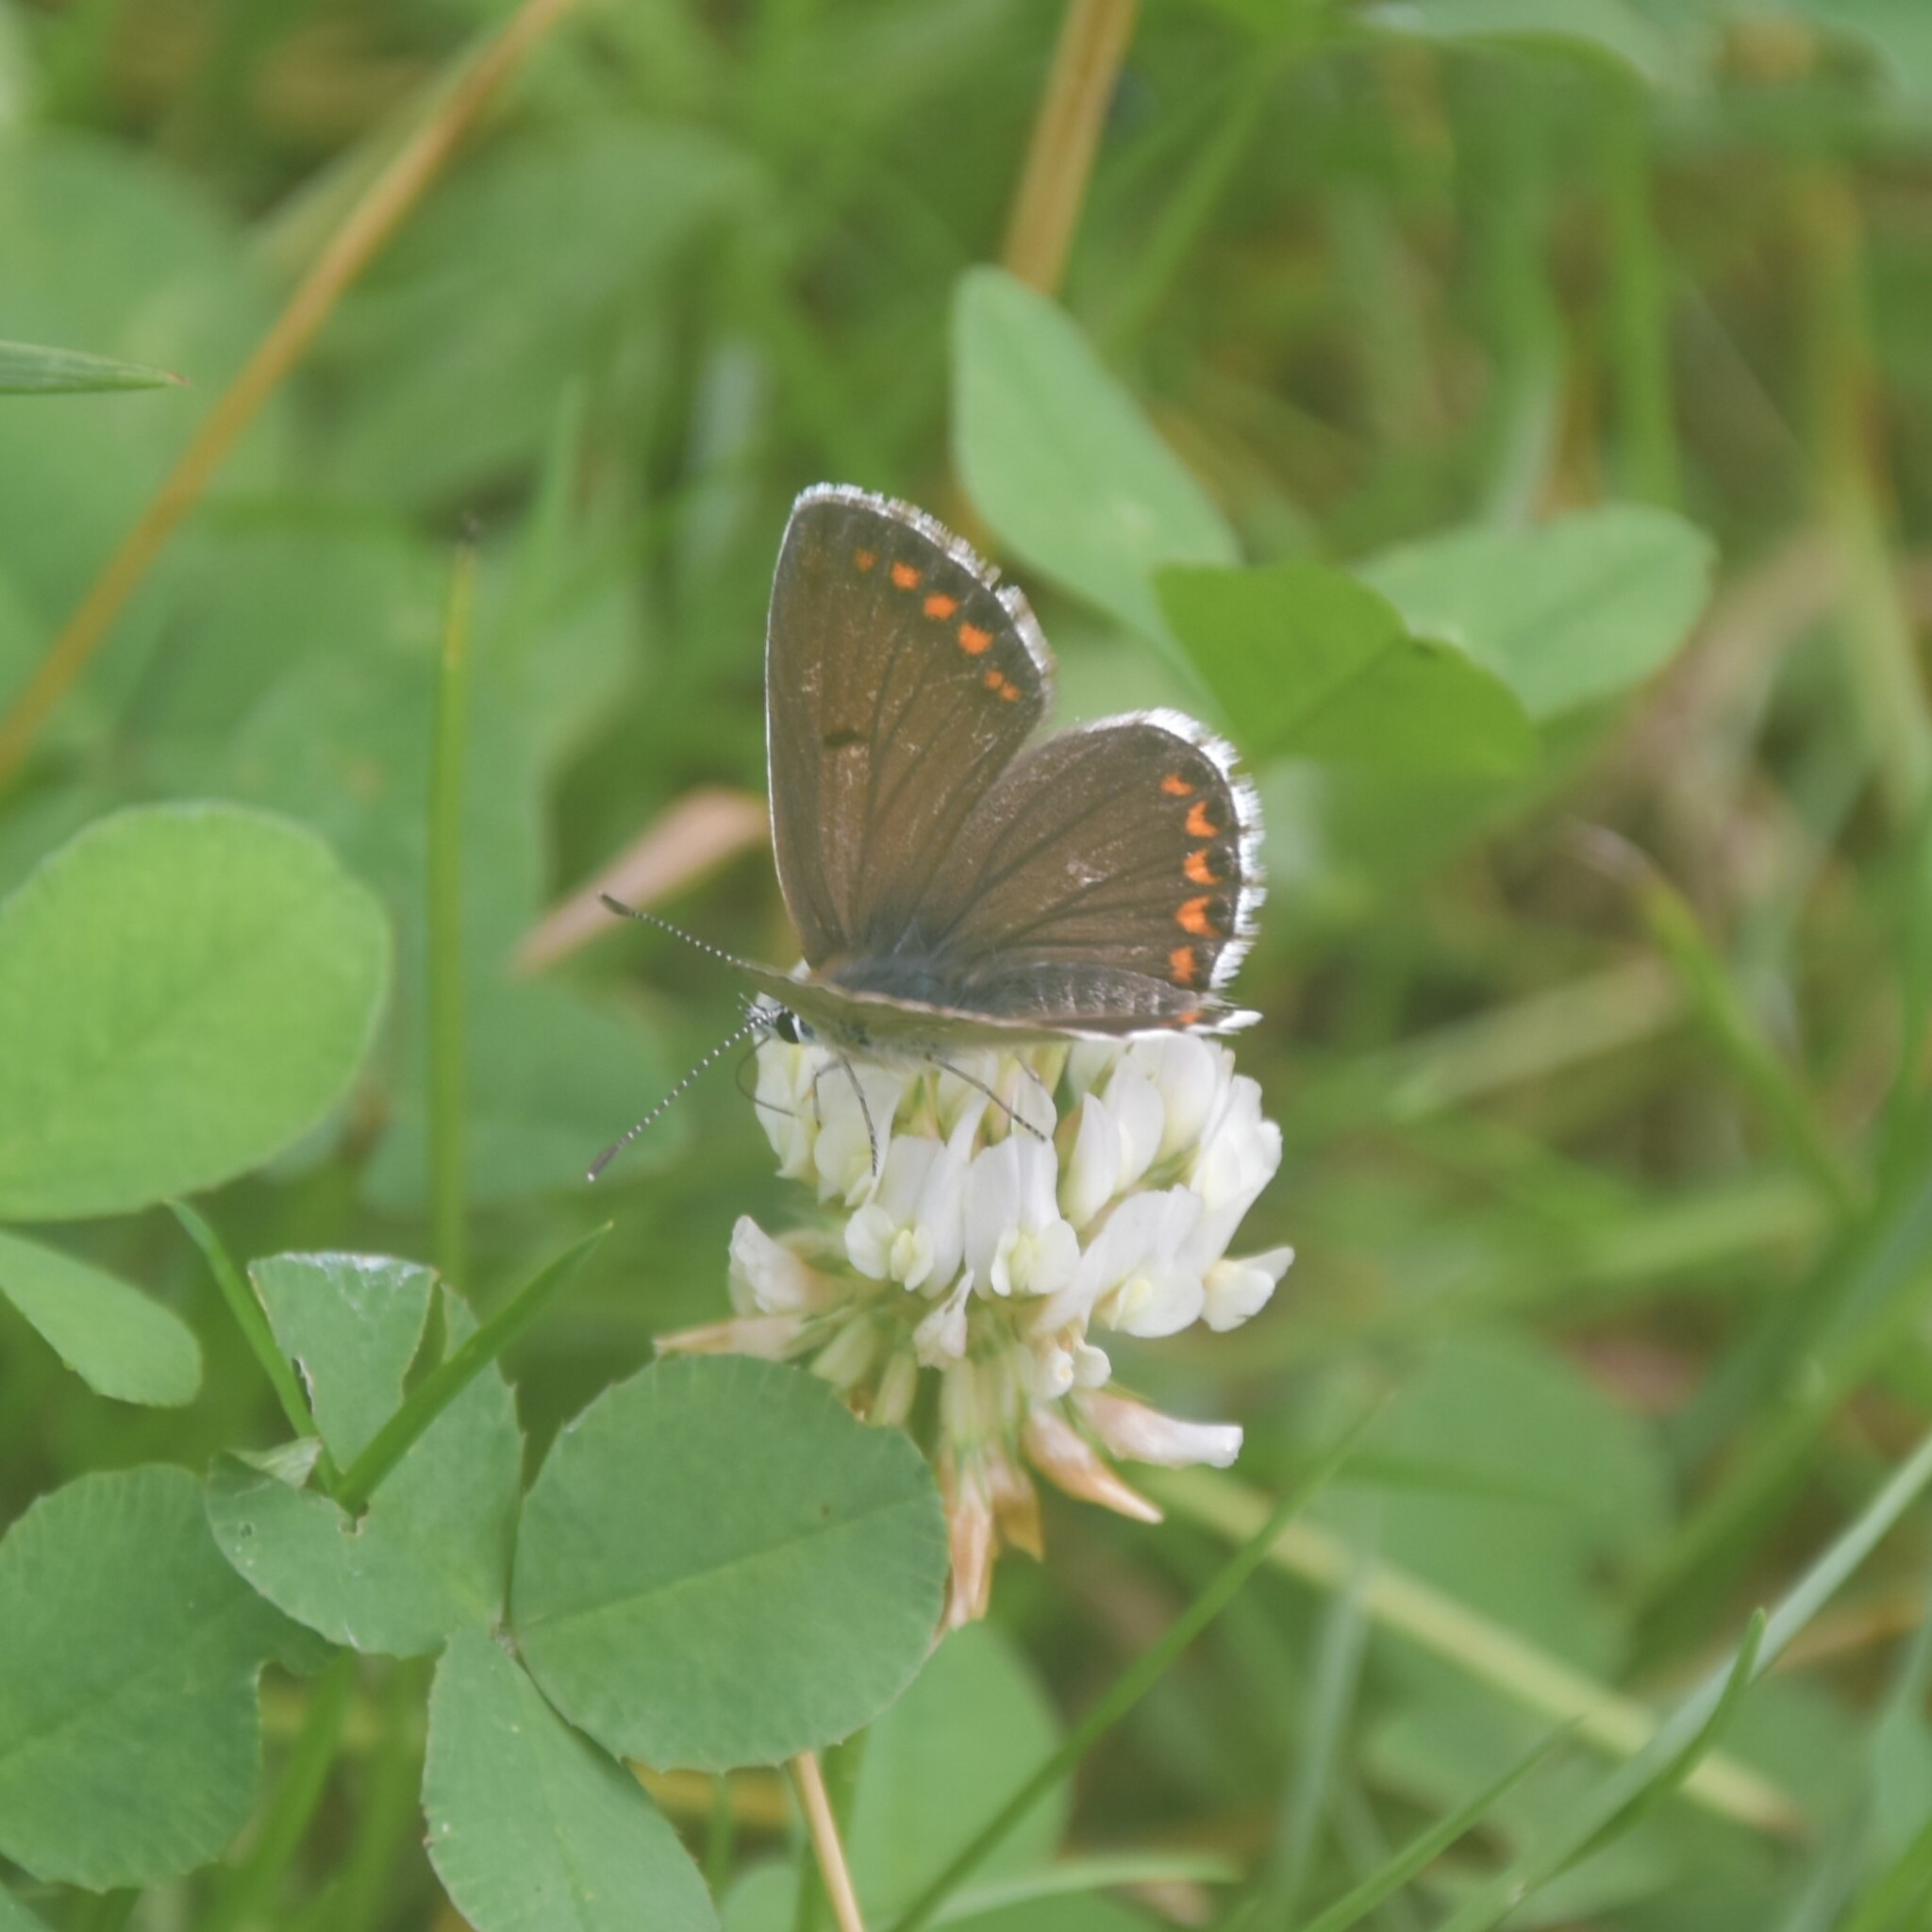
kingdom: Animalia
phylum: Arthropoda
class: Insecta
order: Lepidoptera
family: Lycaenidae
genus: Aricia
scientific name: Aricia agestis
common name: Brown argus
